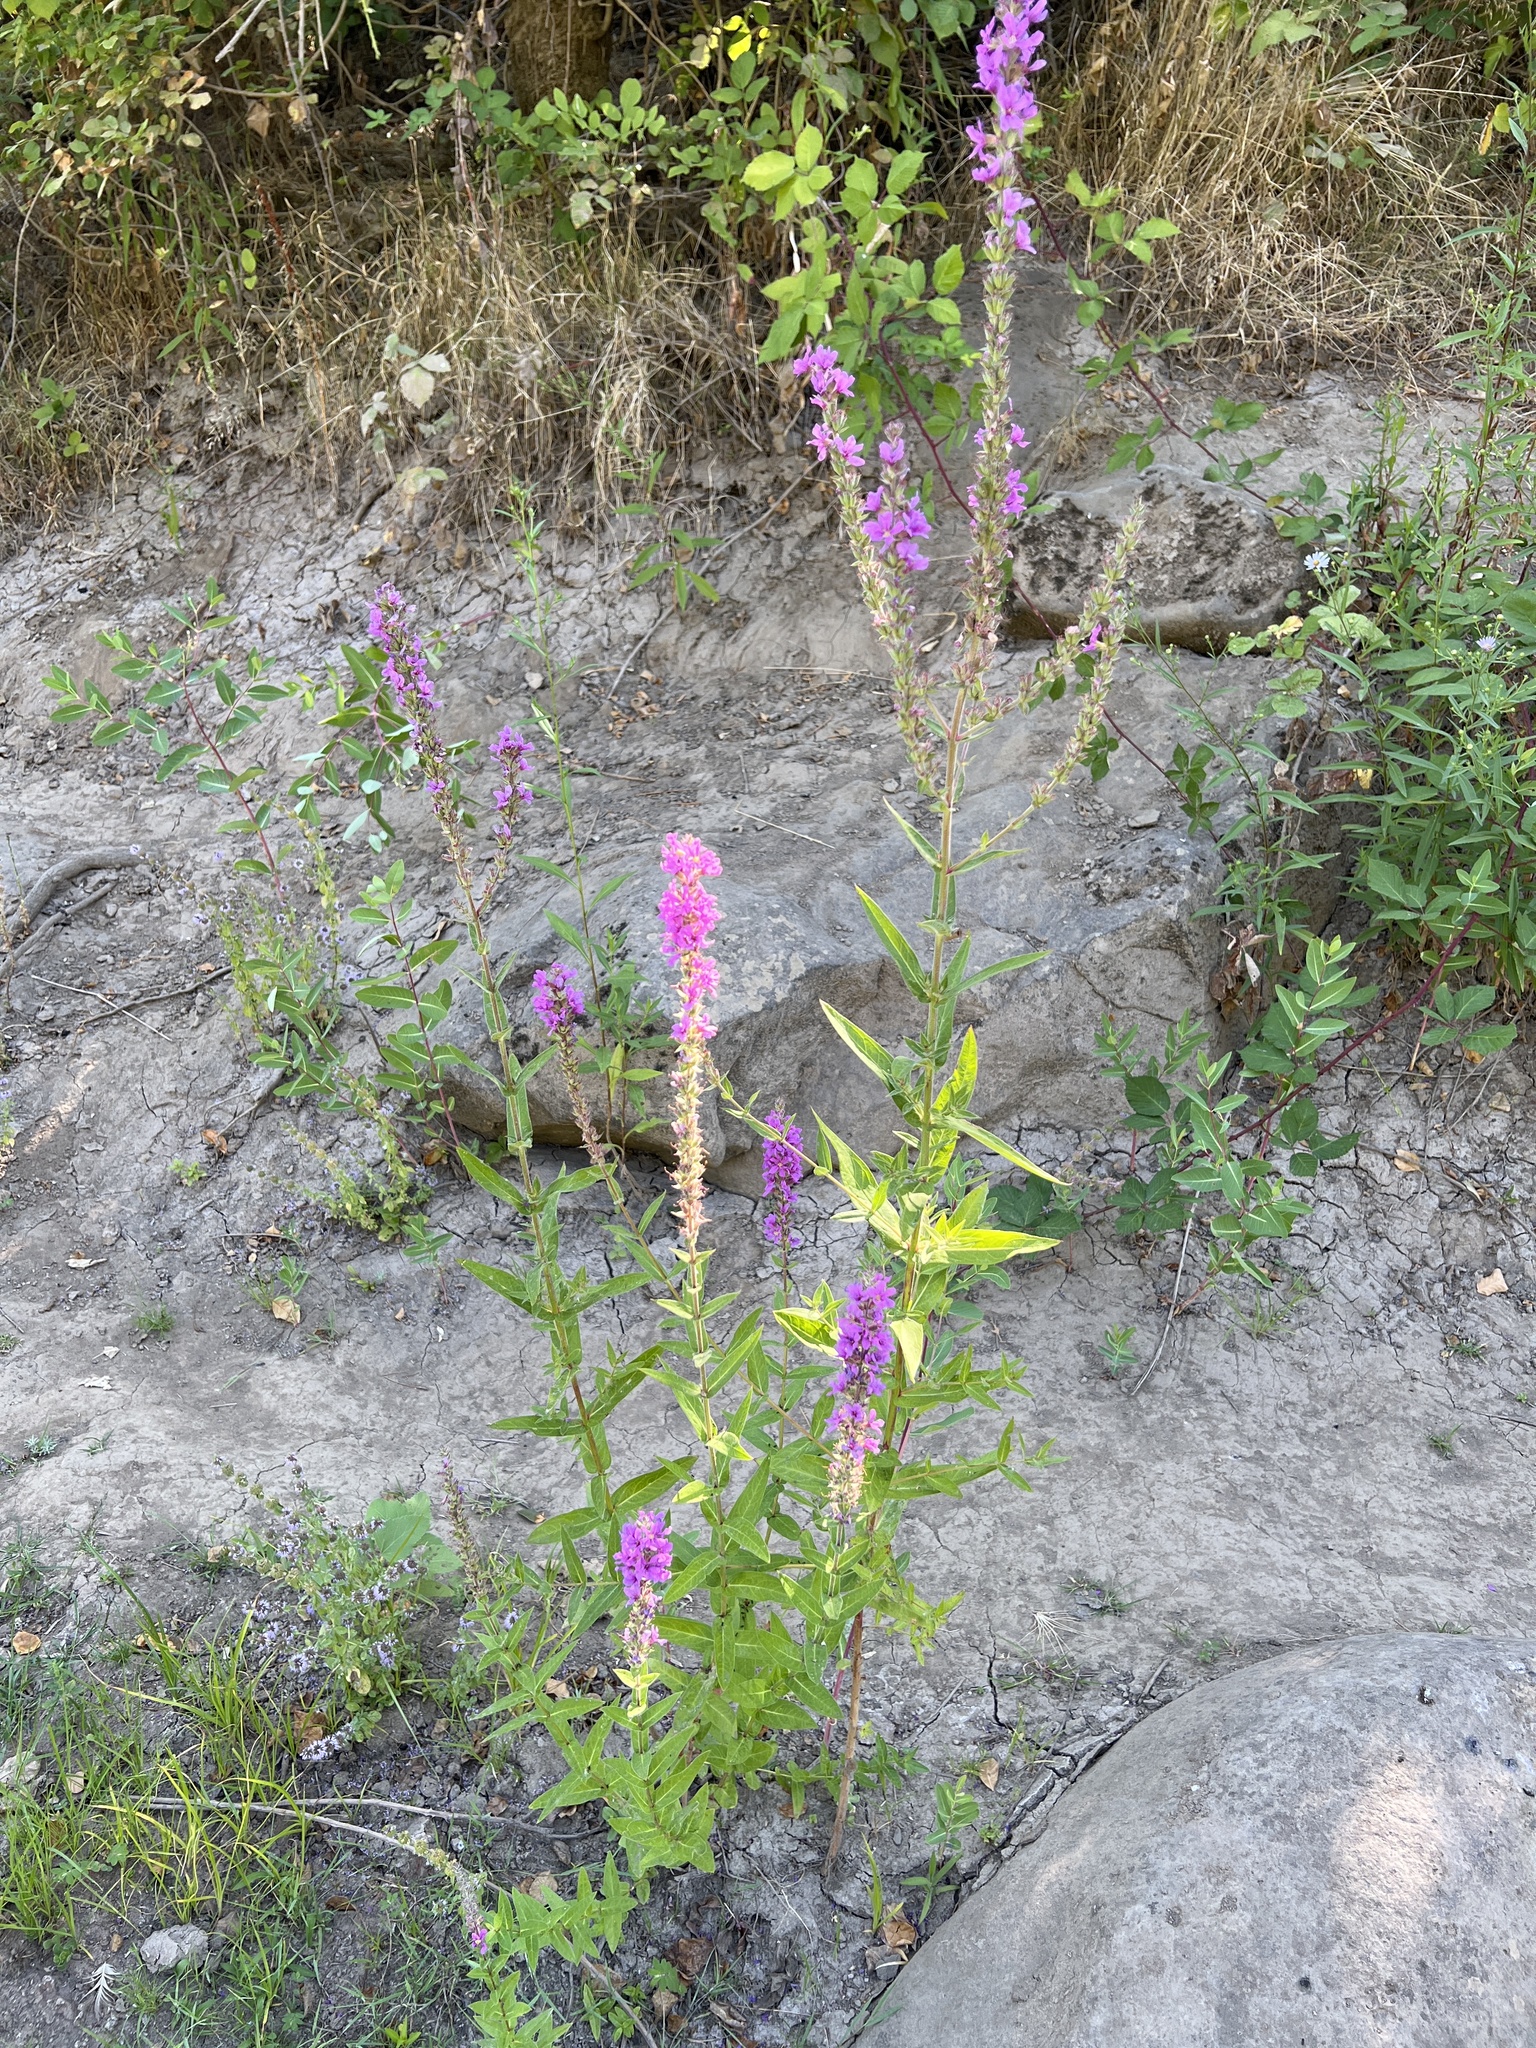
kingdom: Plantae
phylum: Tracheophyta
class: Magnoliopsida
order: Myrtales
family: Lythraceae
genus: Lythrum
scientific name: Lythrum salicaria
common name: Purple loosestrife
